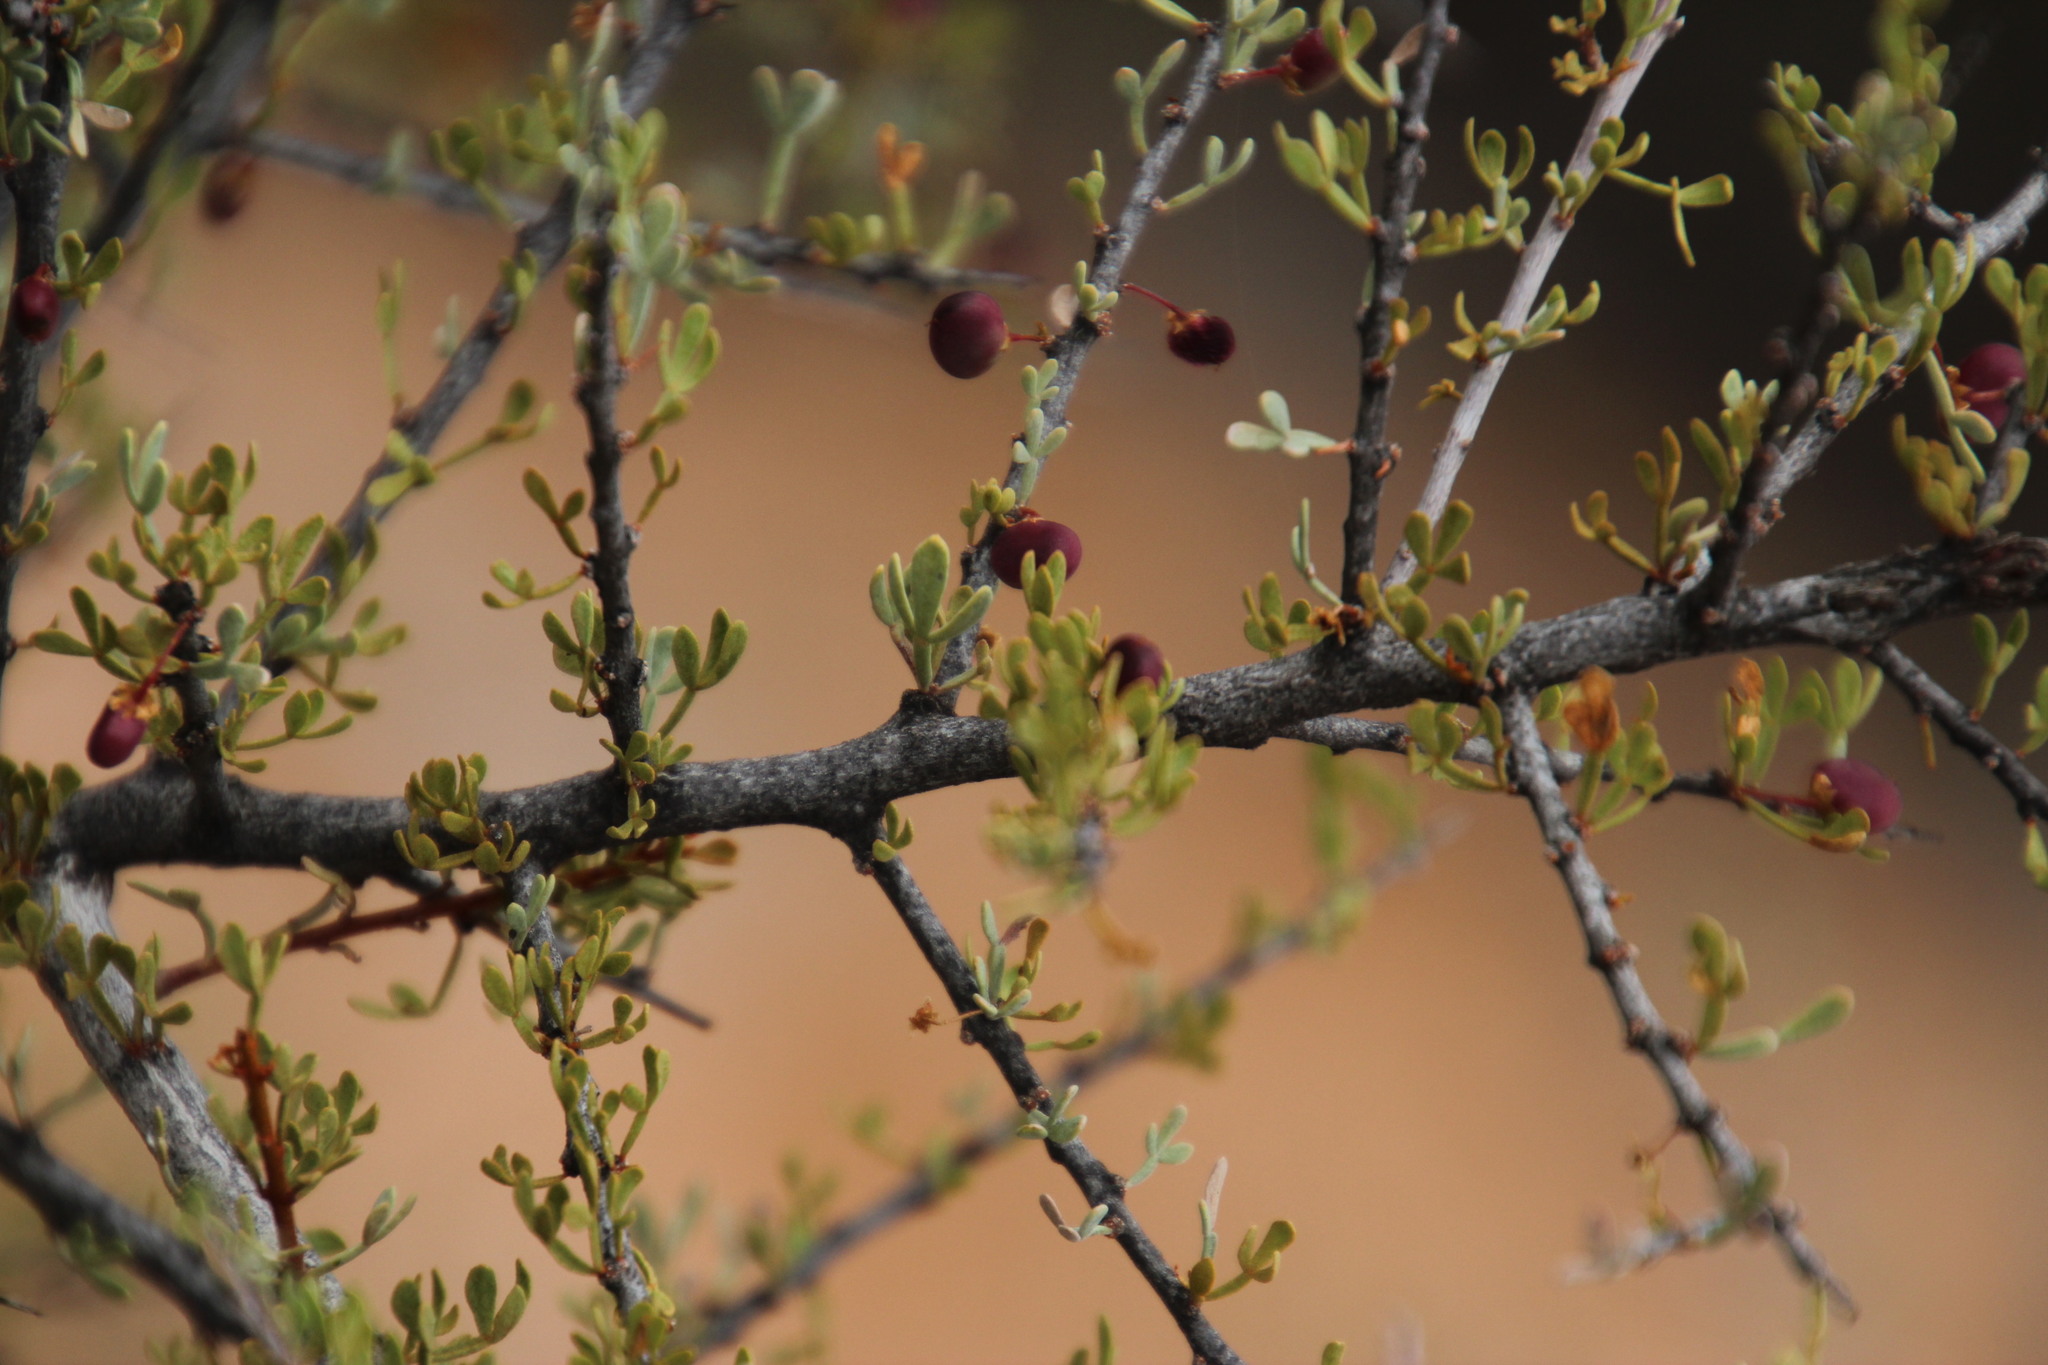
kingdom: Plantae
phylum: Tracheophyta
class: Magnoliopsida
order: Sapindales
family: Anacardiaceae
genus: Searsia
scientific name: Searsia horrida
